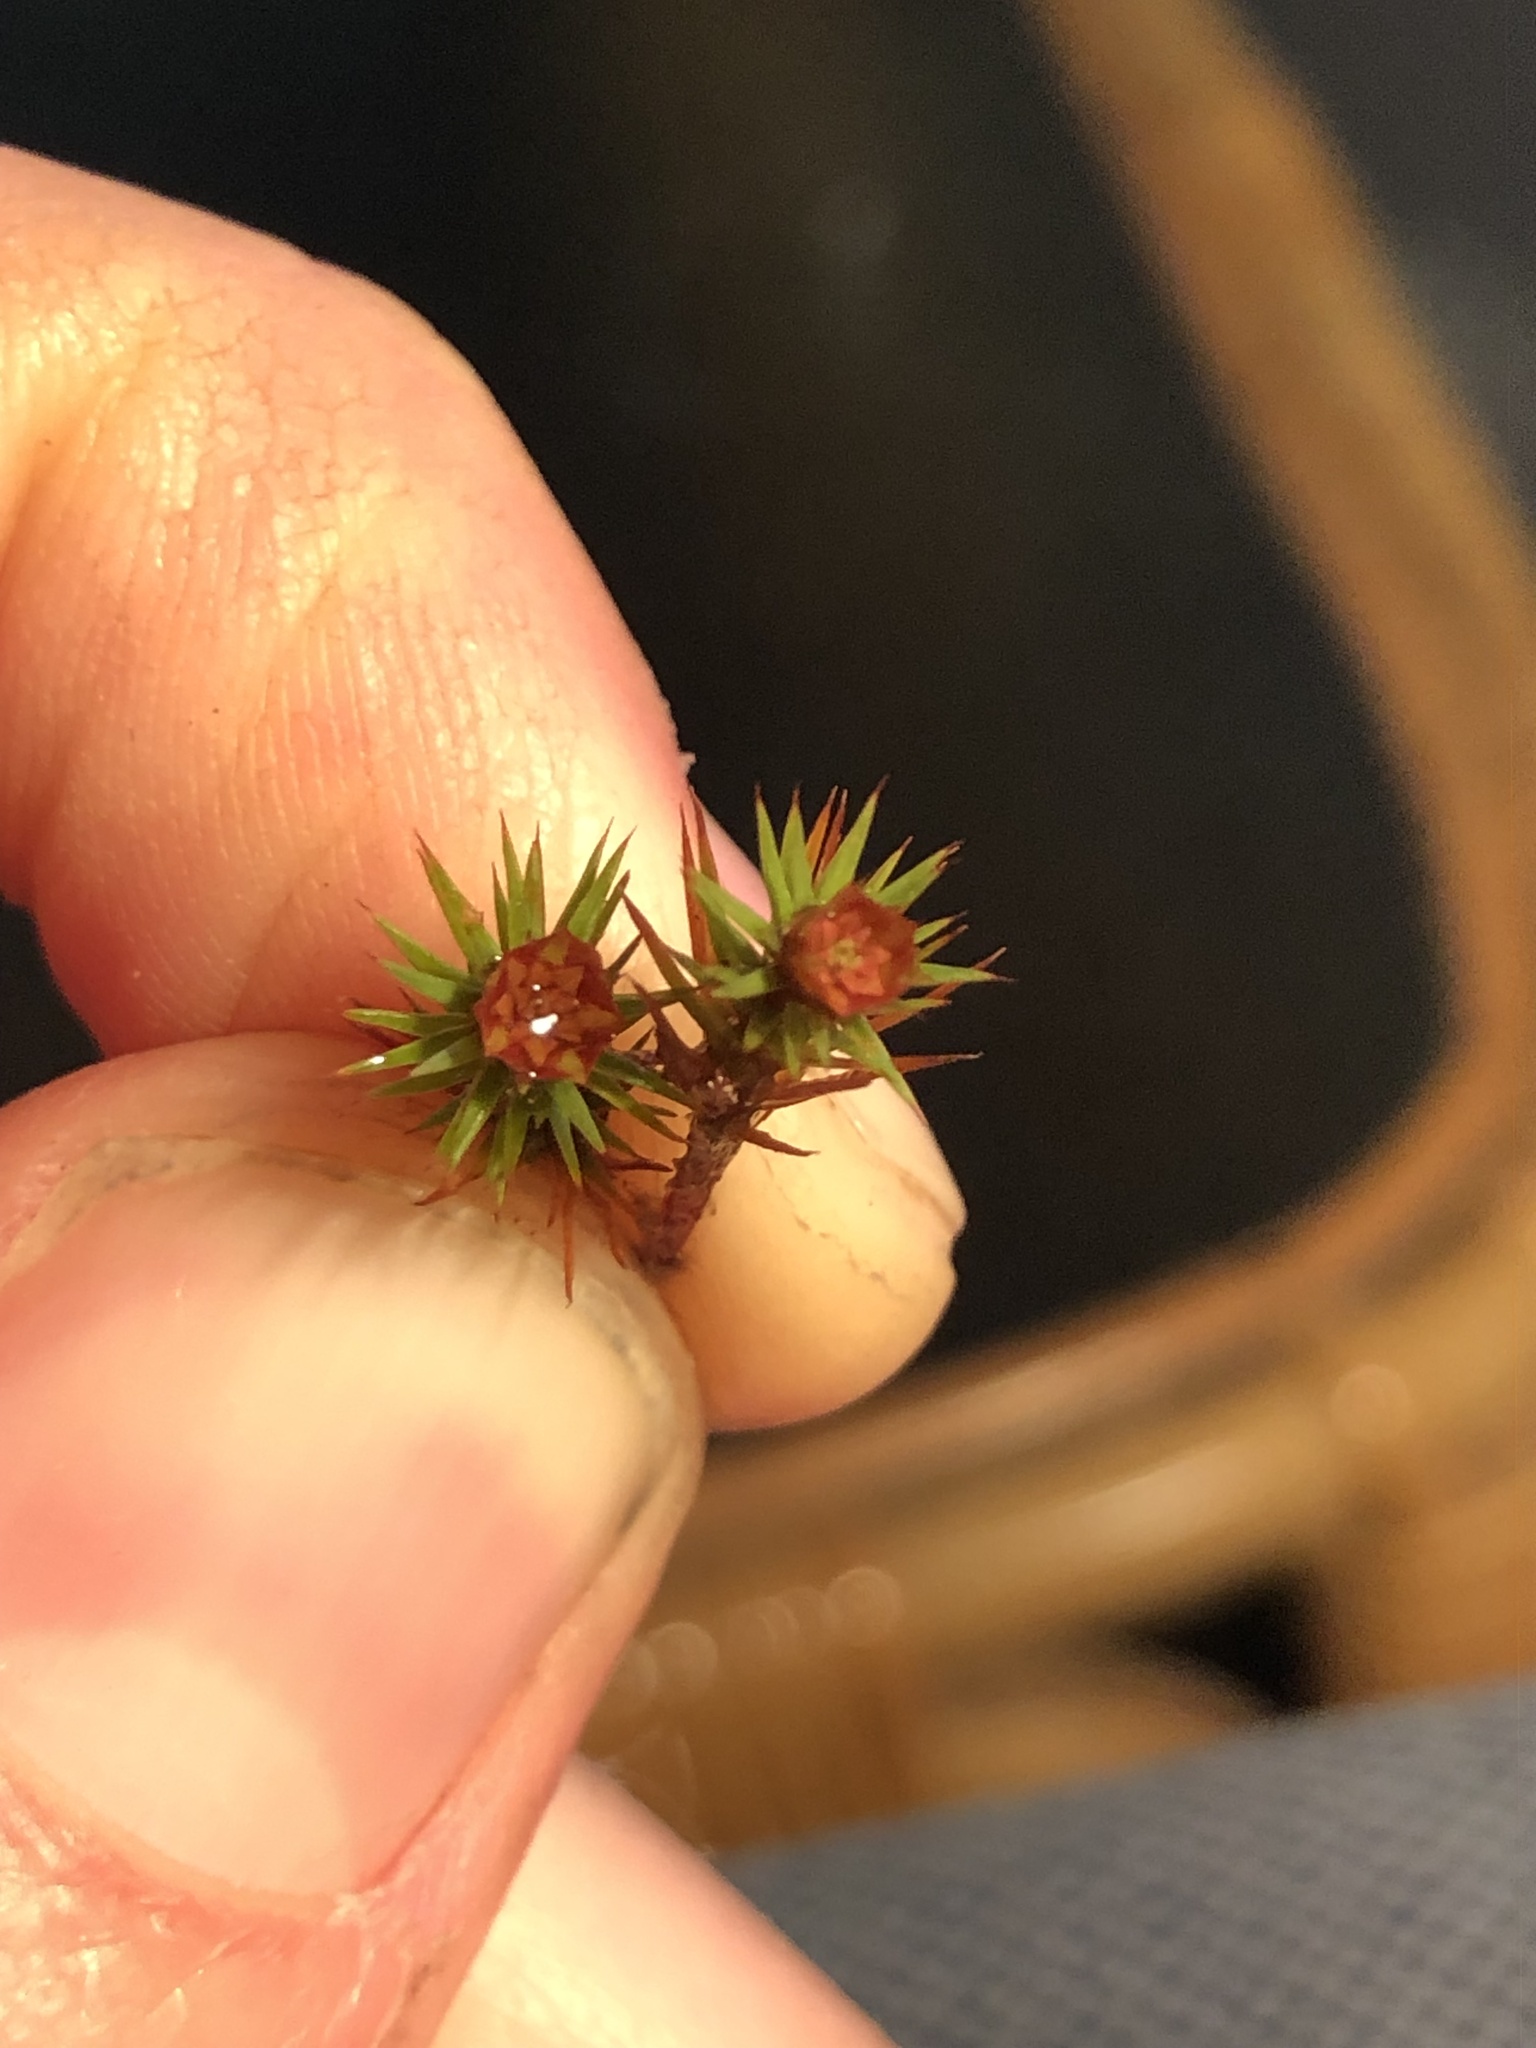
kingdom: Plantae
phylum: Bryophyta
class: Polytrichopsida
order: Polytrichales
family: Polytrichaceae
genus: Polytrichum
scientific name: Polytrichum juniperinum
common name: Juniper haircap moss
